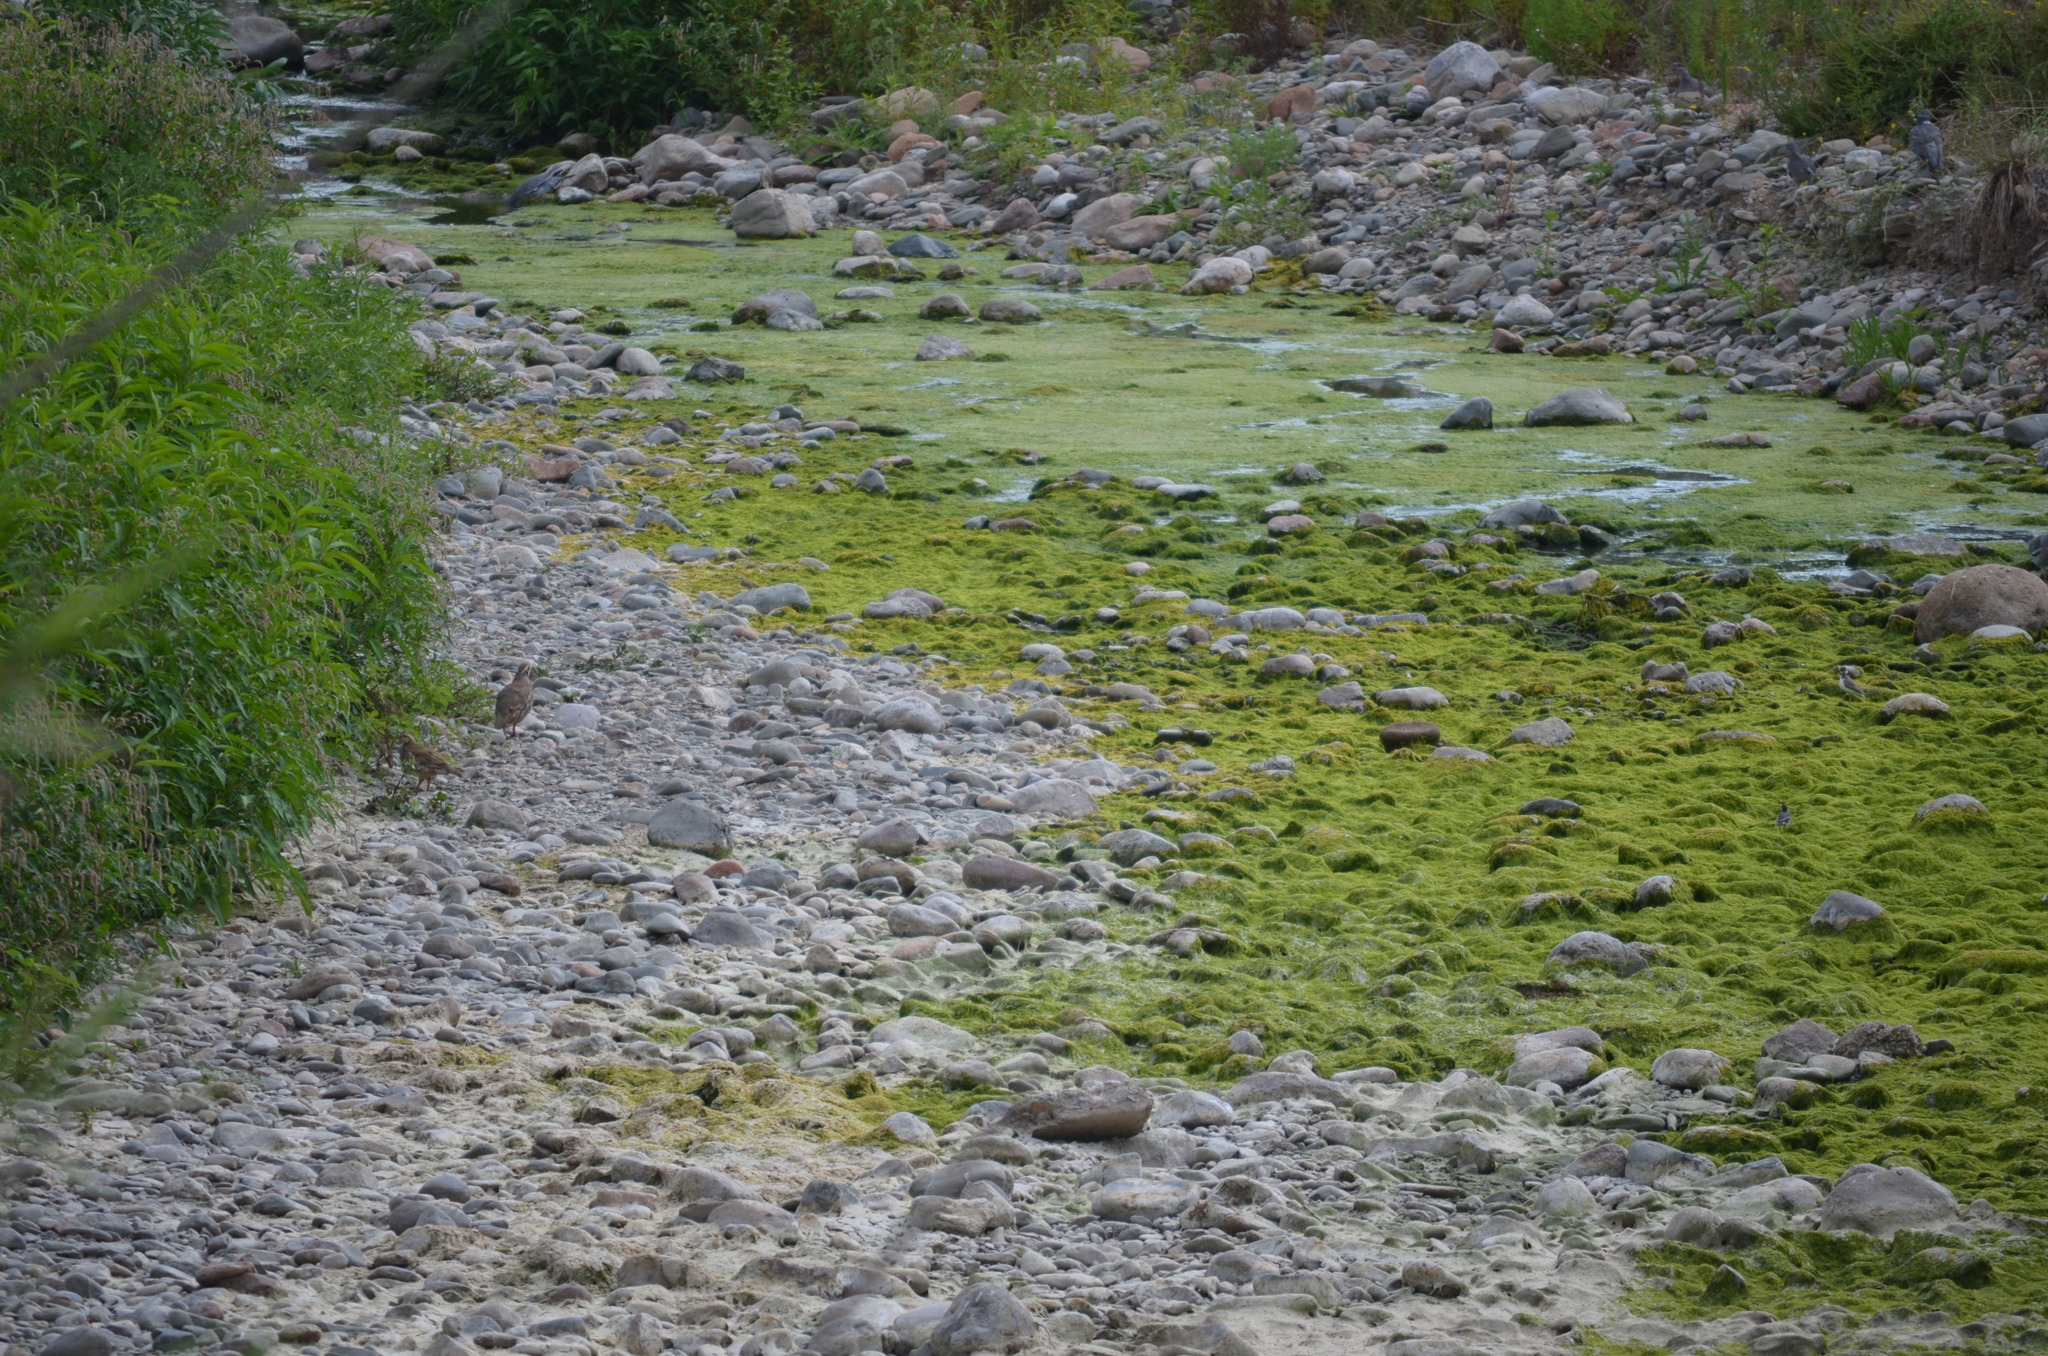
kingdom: Animalia
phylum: Chordata
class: Aves
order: Galliformes
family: Phasianidae
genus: Alectoris
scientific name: Alectoris rufa
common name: Red-legged partridge
